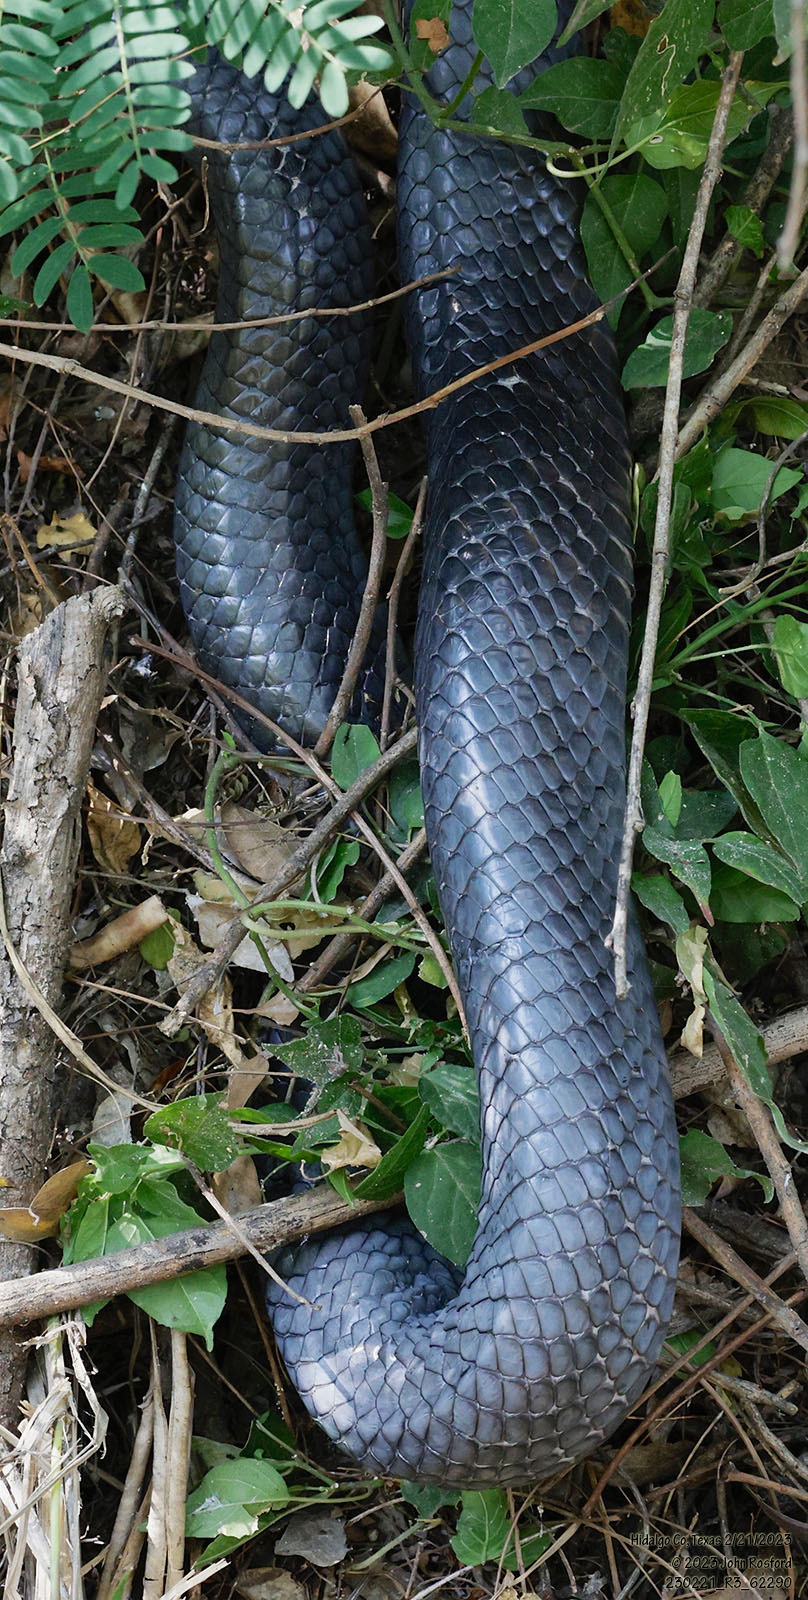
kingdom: Animalia
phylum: Chordata
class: Squamata
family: Colubridae
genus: Drymarchon
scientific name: Drymarchon melanurus
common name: Central american indigo snake
